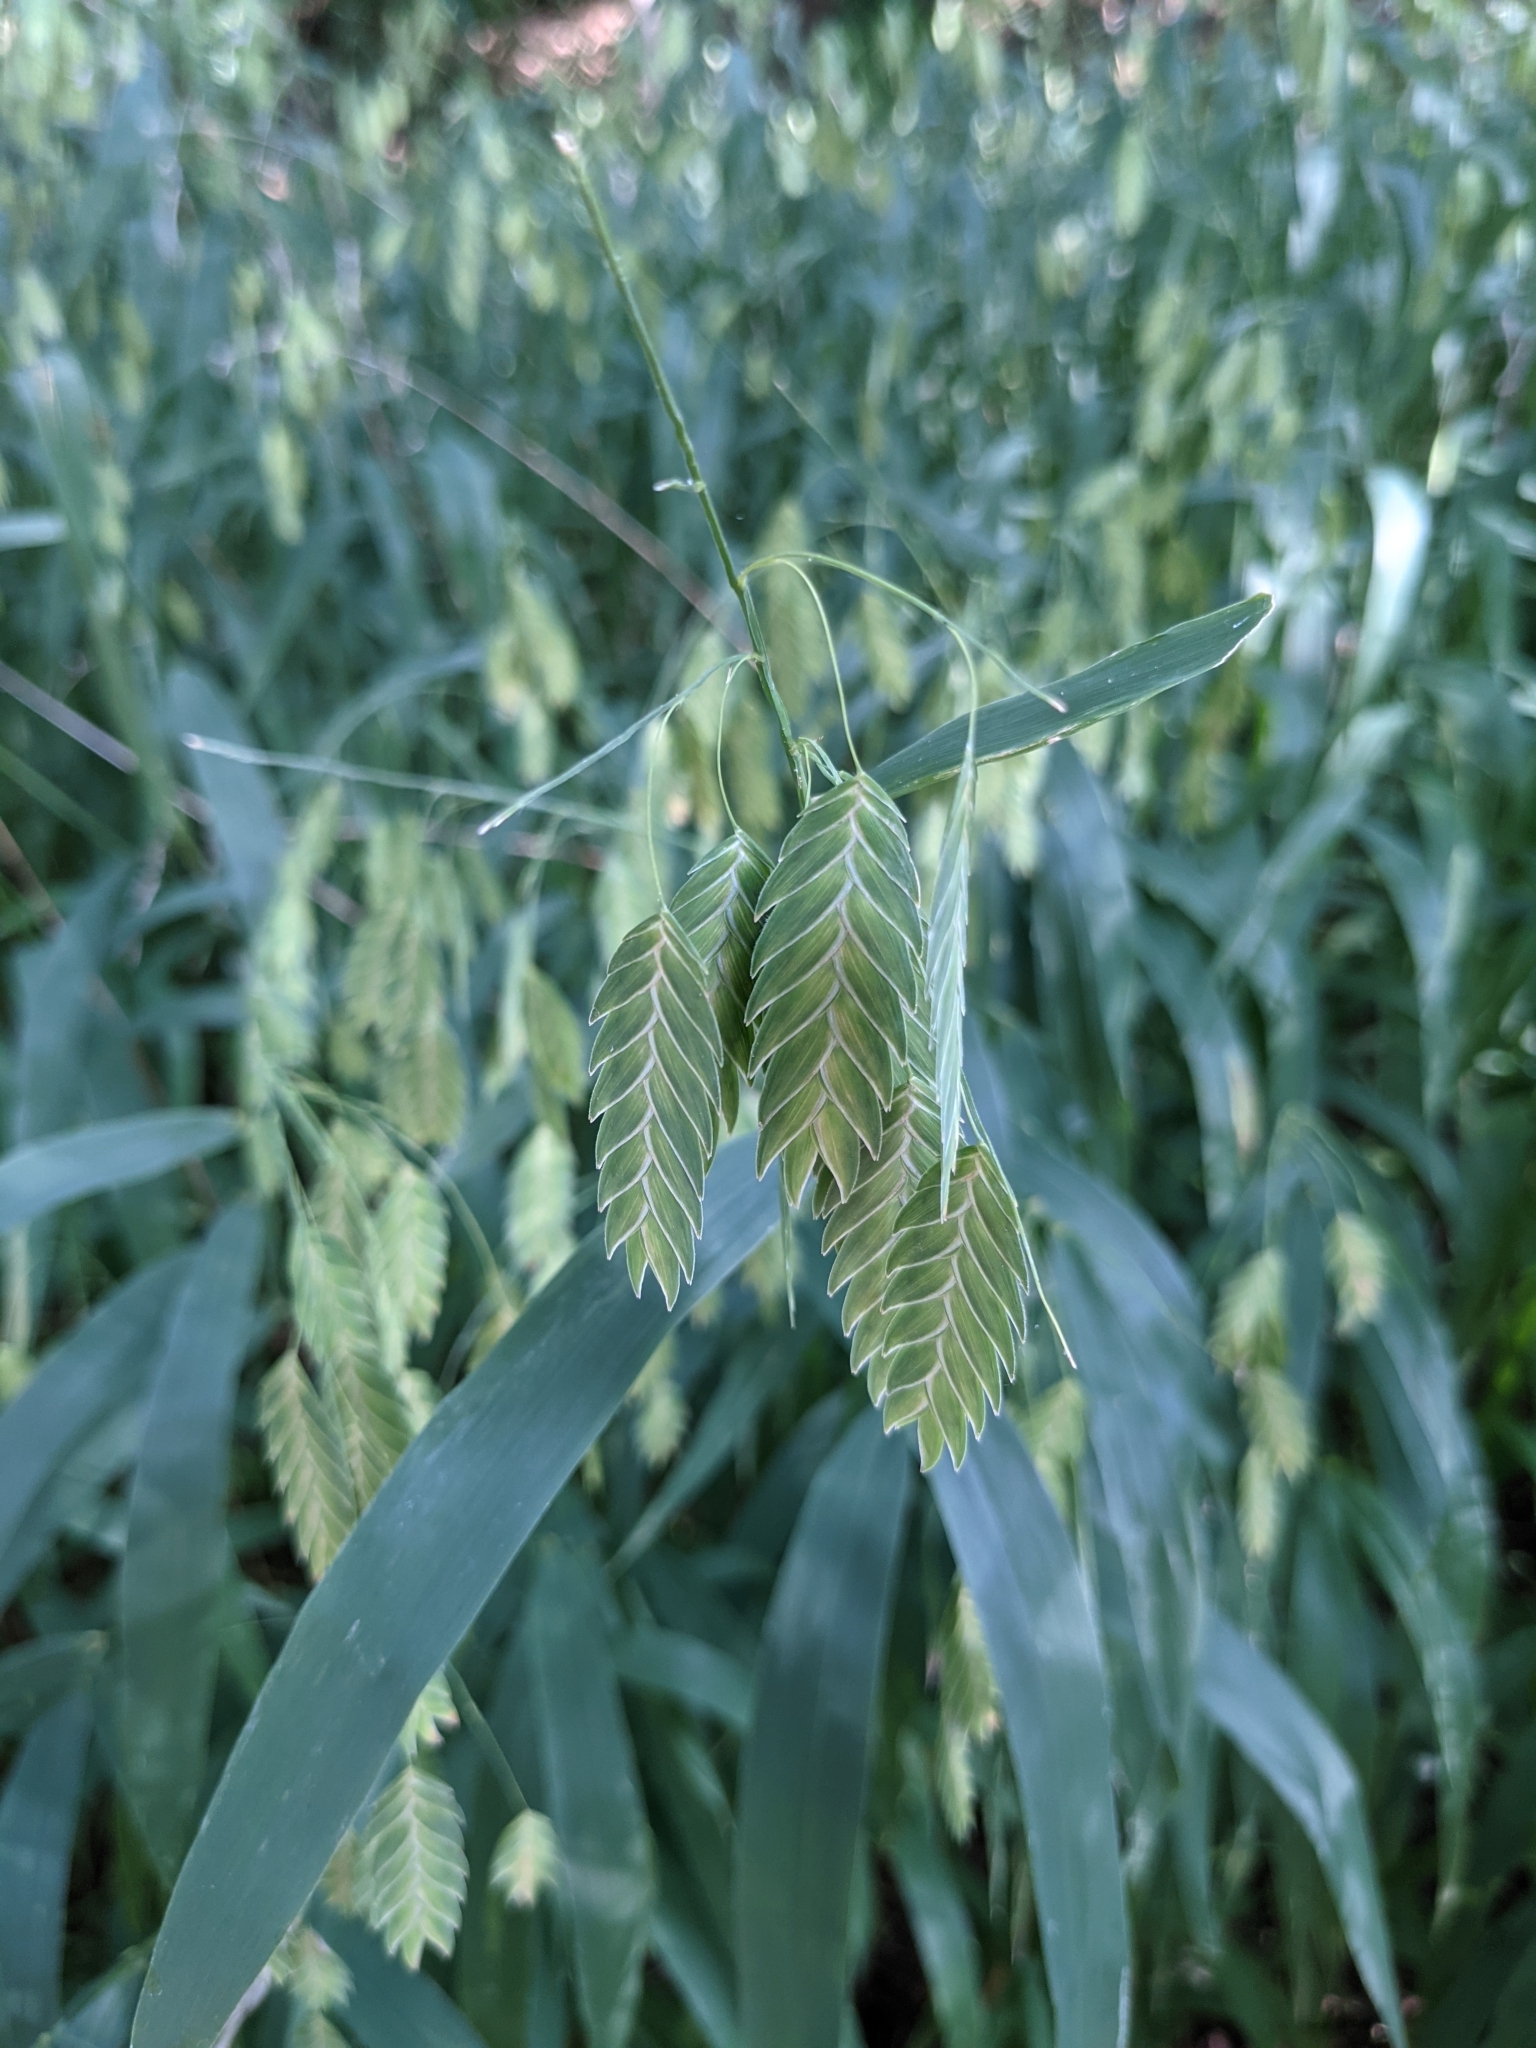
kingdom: Plantae
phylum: Tracheophyta
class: Liliopsida
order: Poales
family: Poaceae
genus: Chasmanthium
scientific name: Chasmanthium latifolium
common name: Broad-leaved chasmanthium
